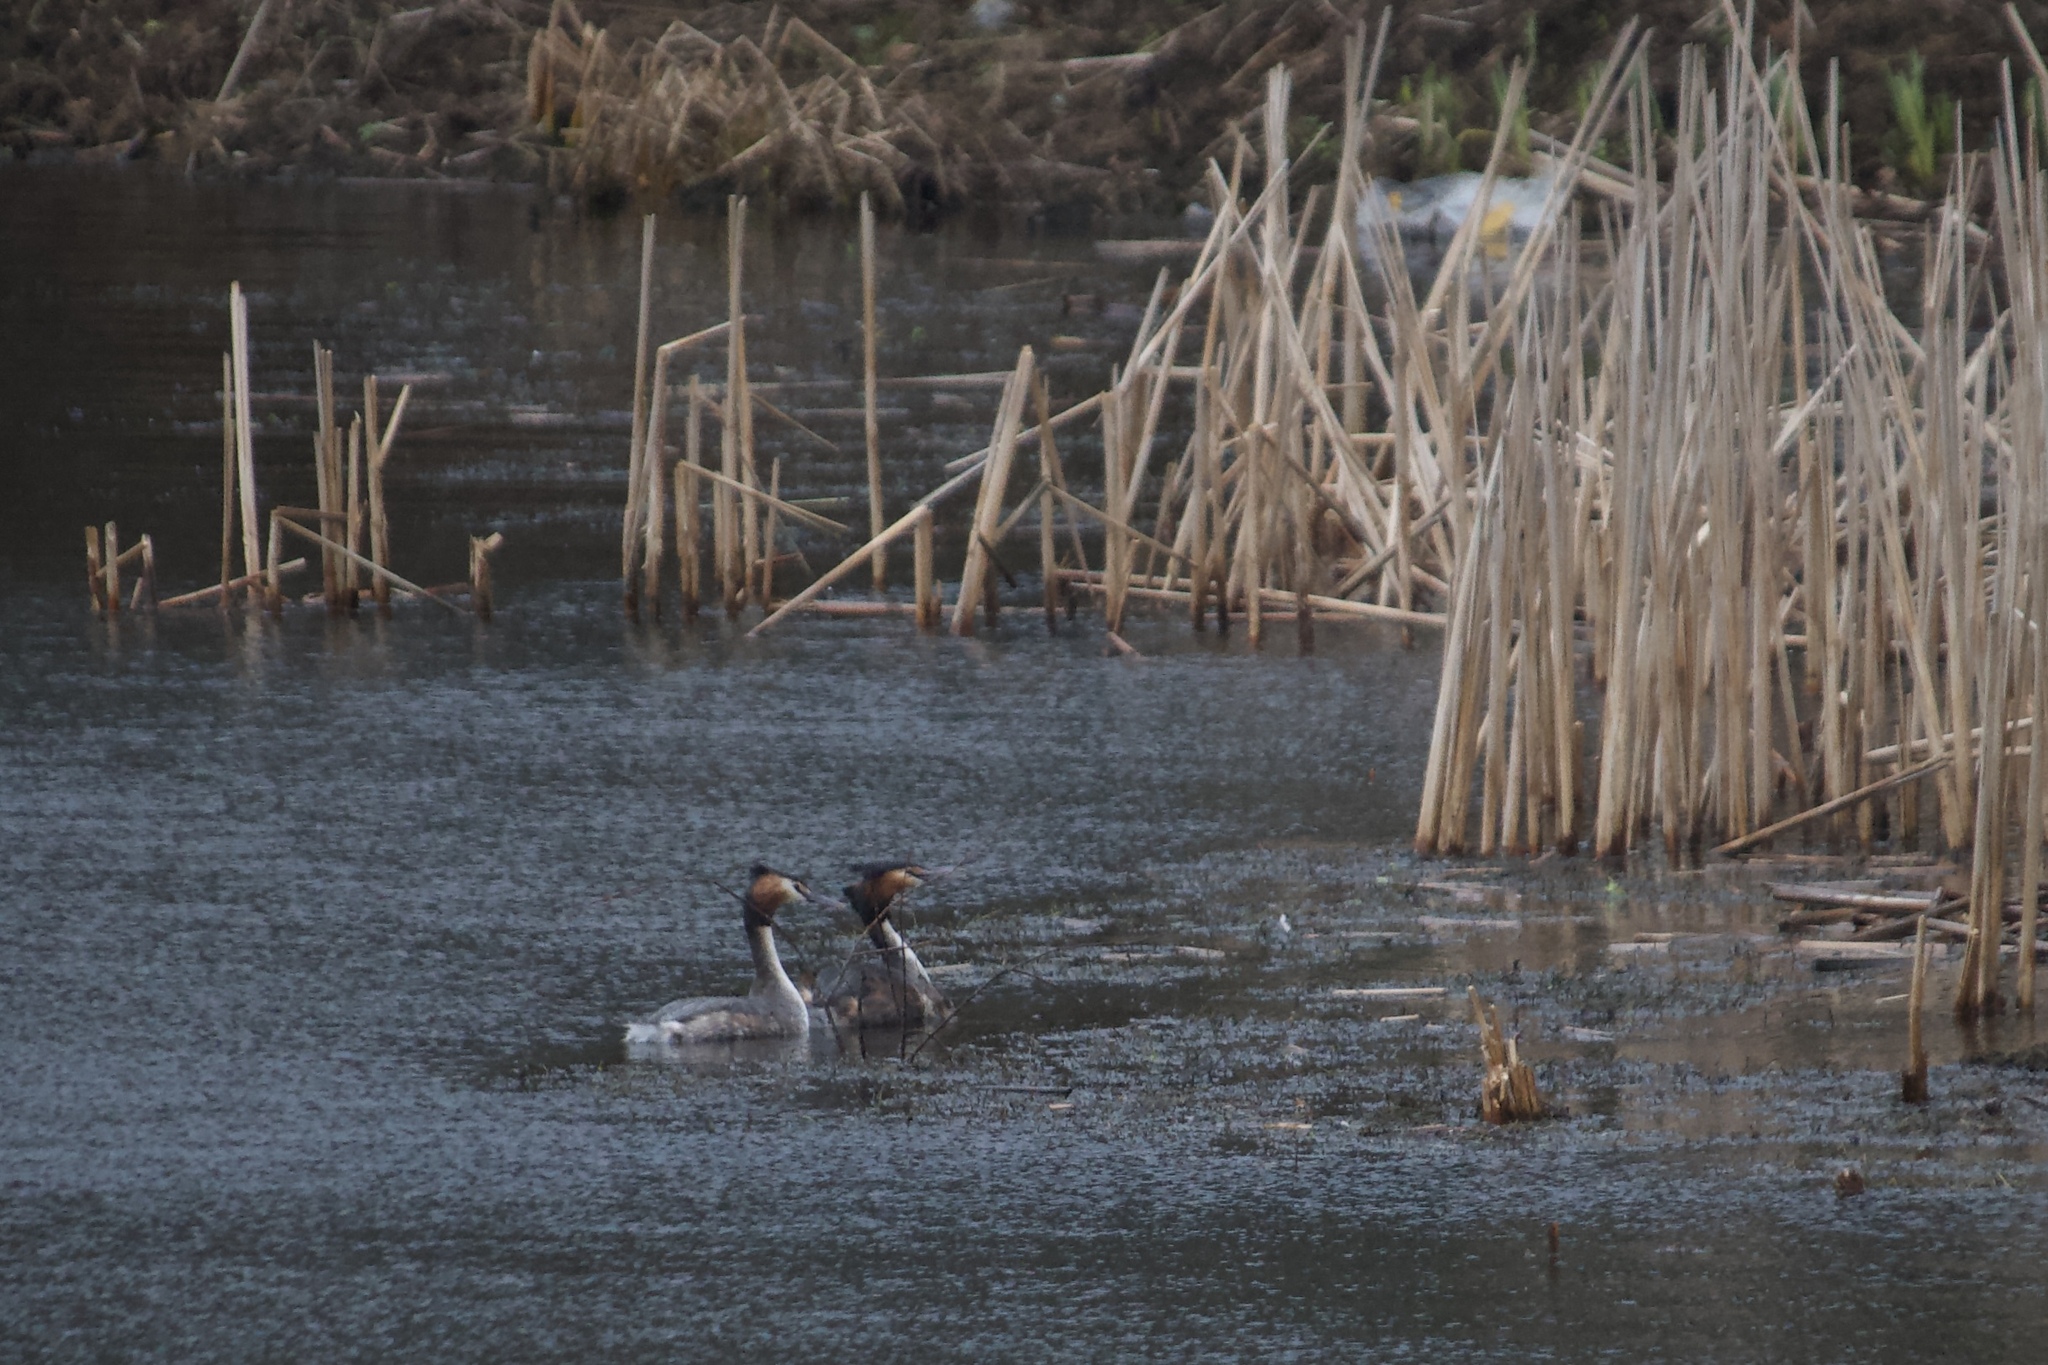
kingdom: Animalia
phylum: Chordata
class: Aves
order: Podicipediformes
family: Podicipedidae
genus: Podiceps
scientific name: Podiceps cristatus
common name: Great crested grebe
